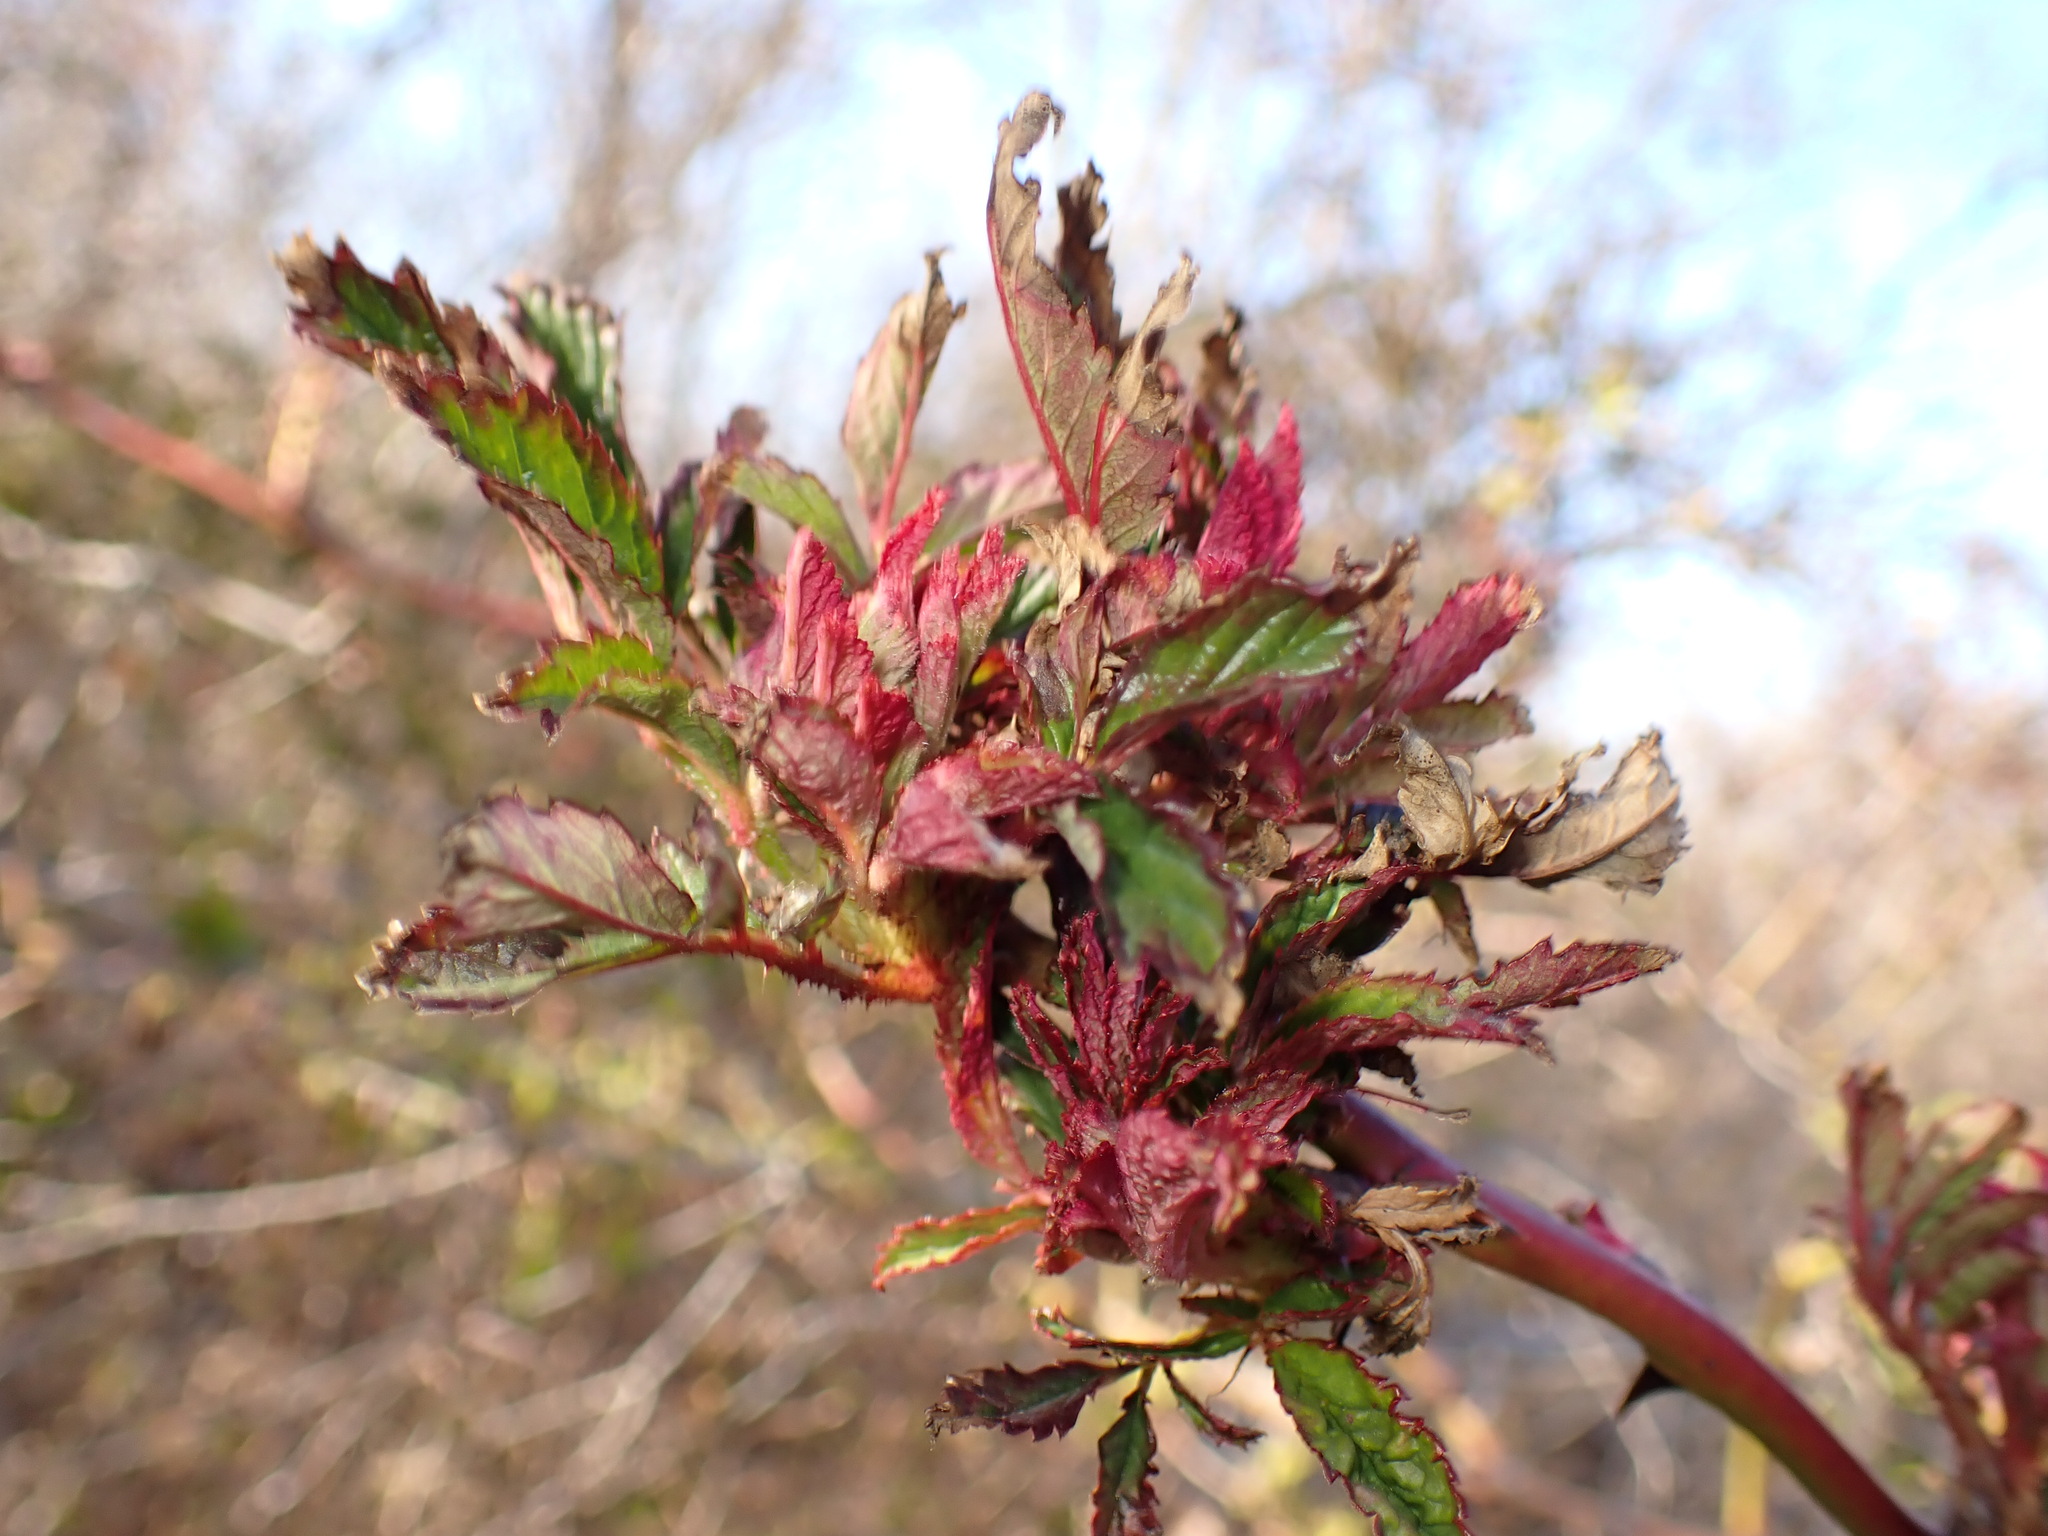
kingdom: Viruses
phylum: Negarnaviricota
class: Ellioviricetes
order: Bunyavirales
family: Fimoviridae
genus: Emaravirus
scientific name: Emaravirus rosae
